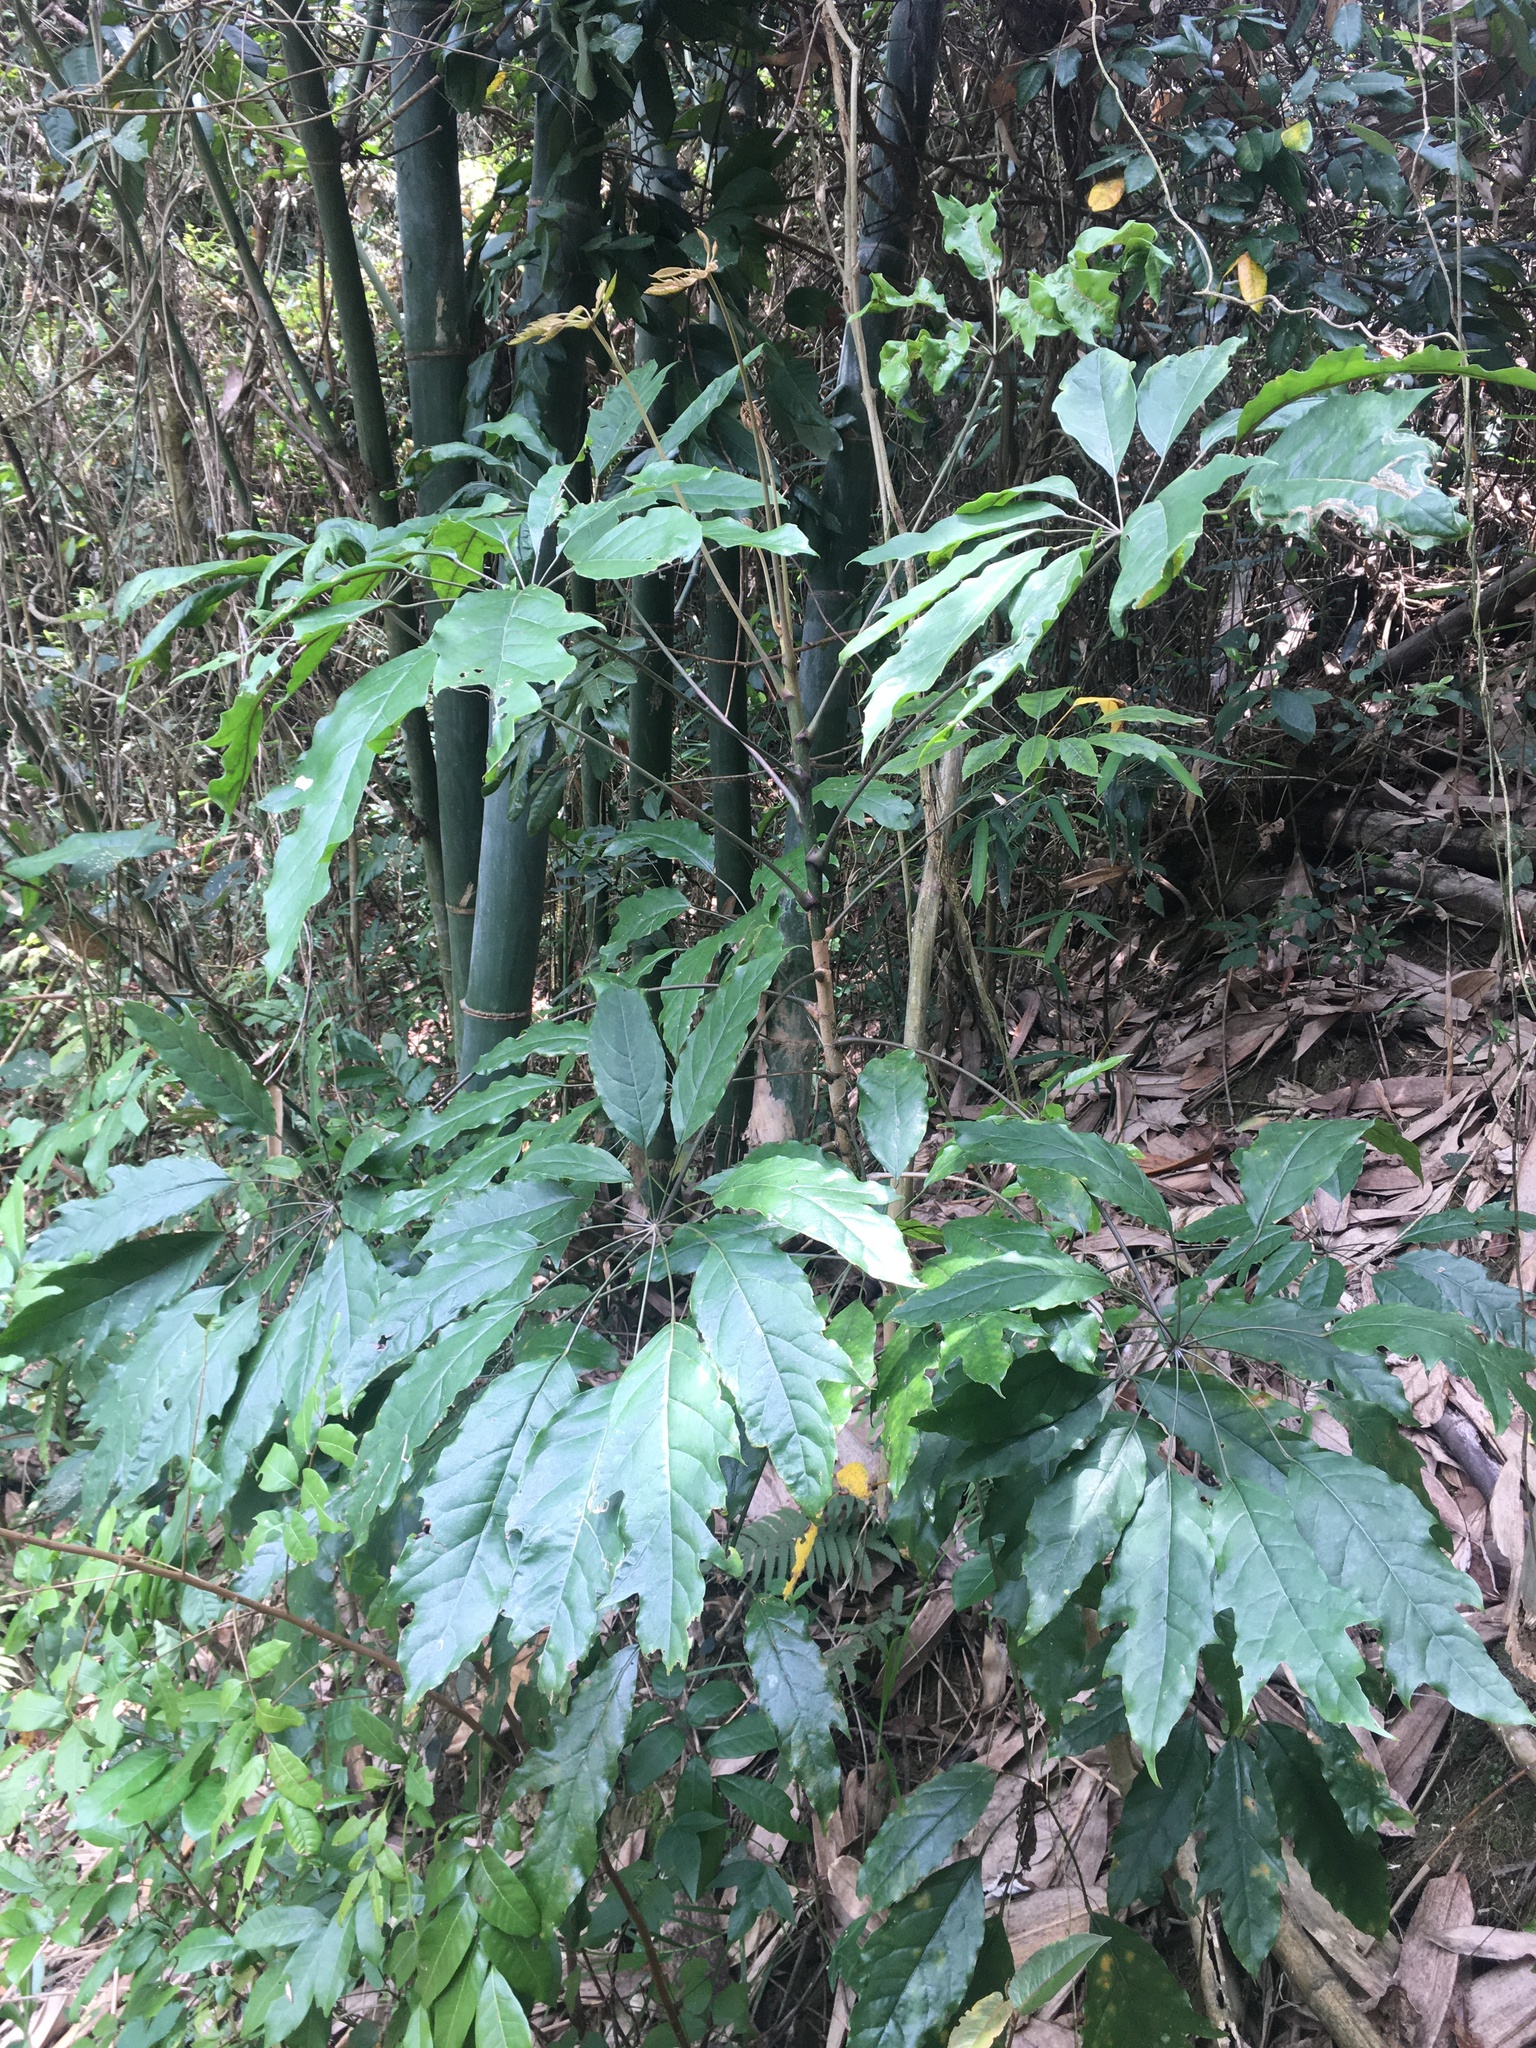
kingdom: Plantae
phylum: Tracheophyta
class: Magnoliopsida
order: Apiales
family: Araliaceae
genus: Heptapleurum
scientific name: Heptapleurum heptaphyllum
